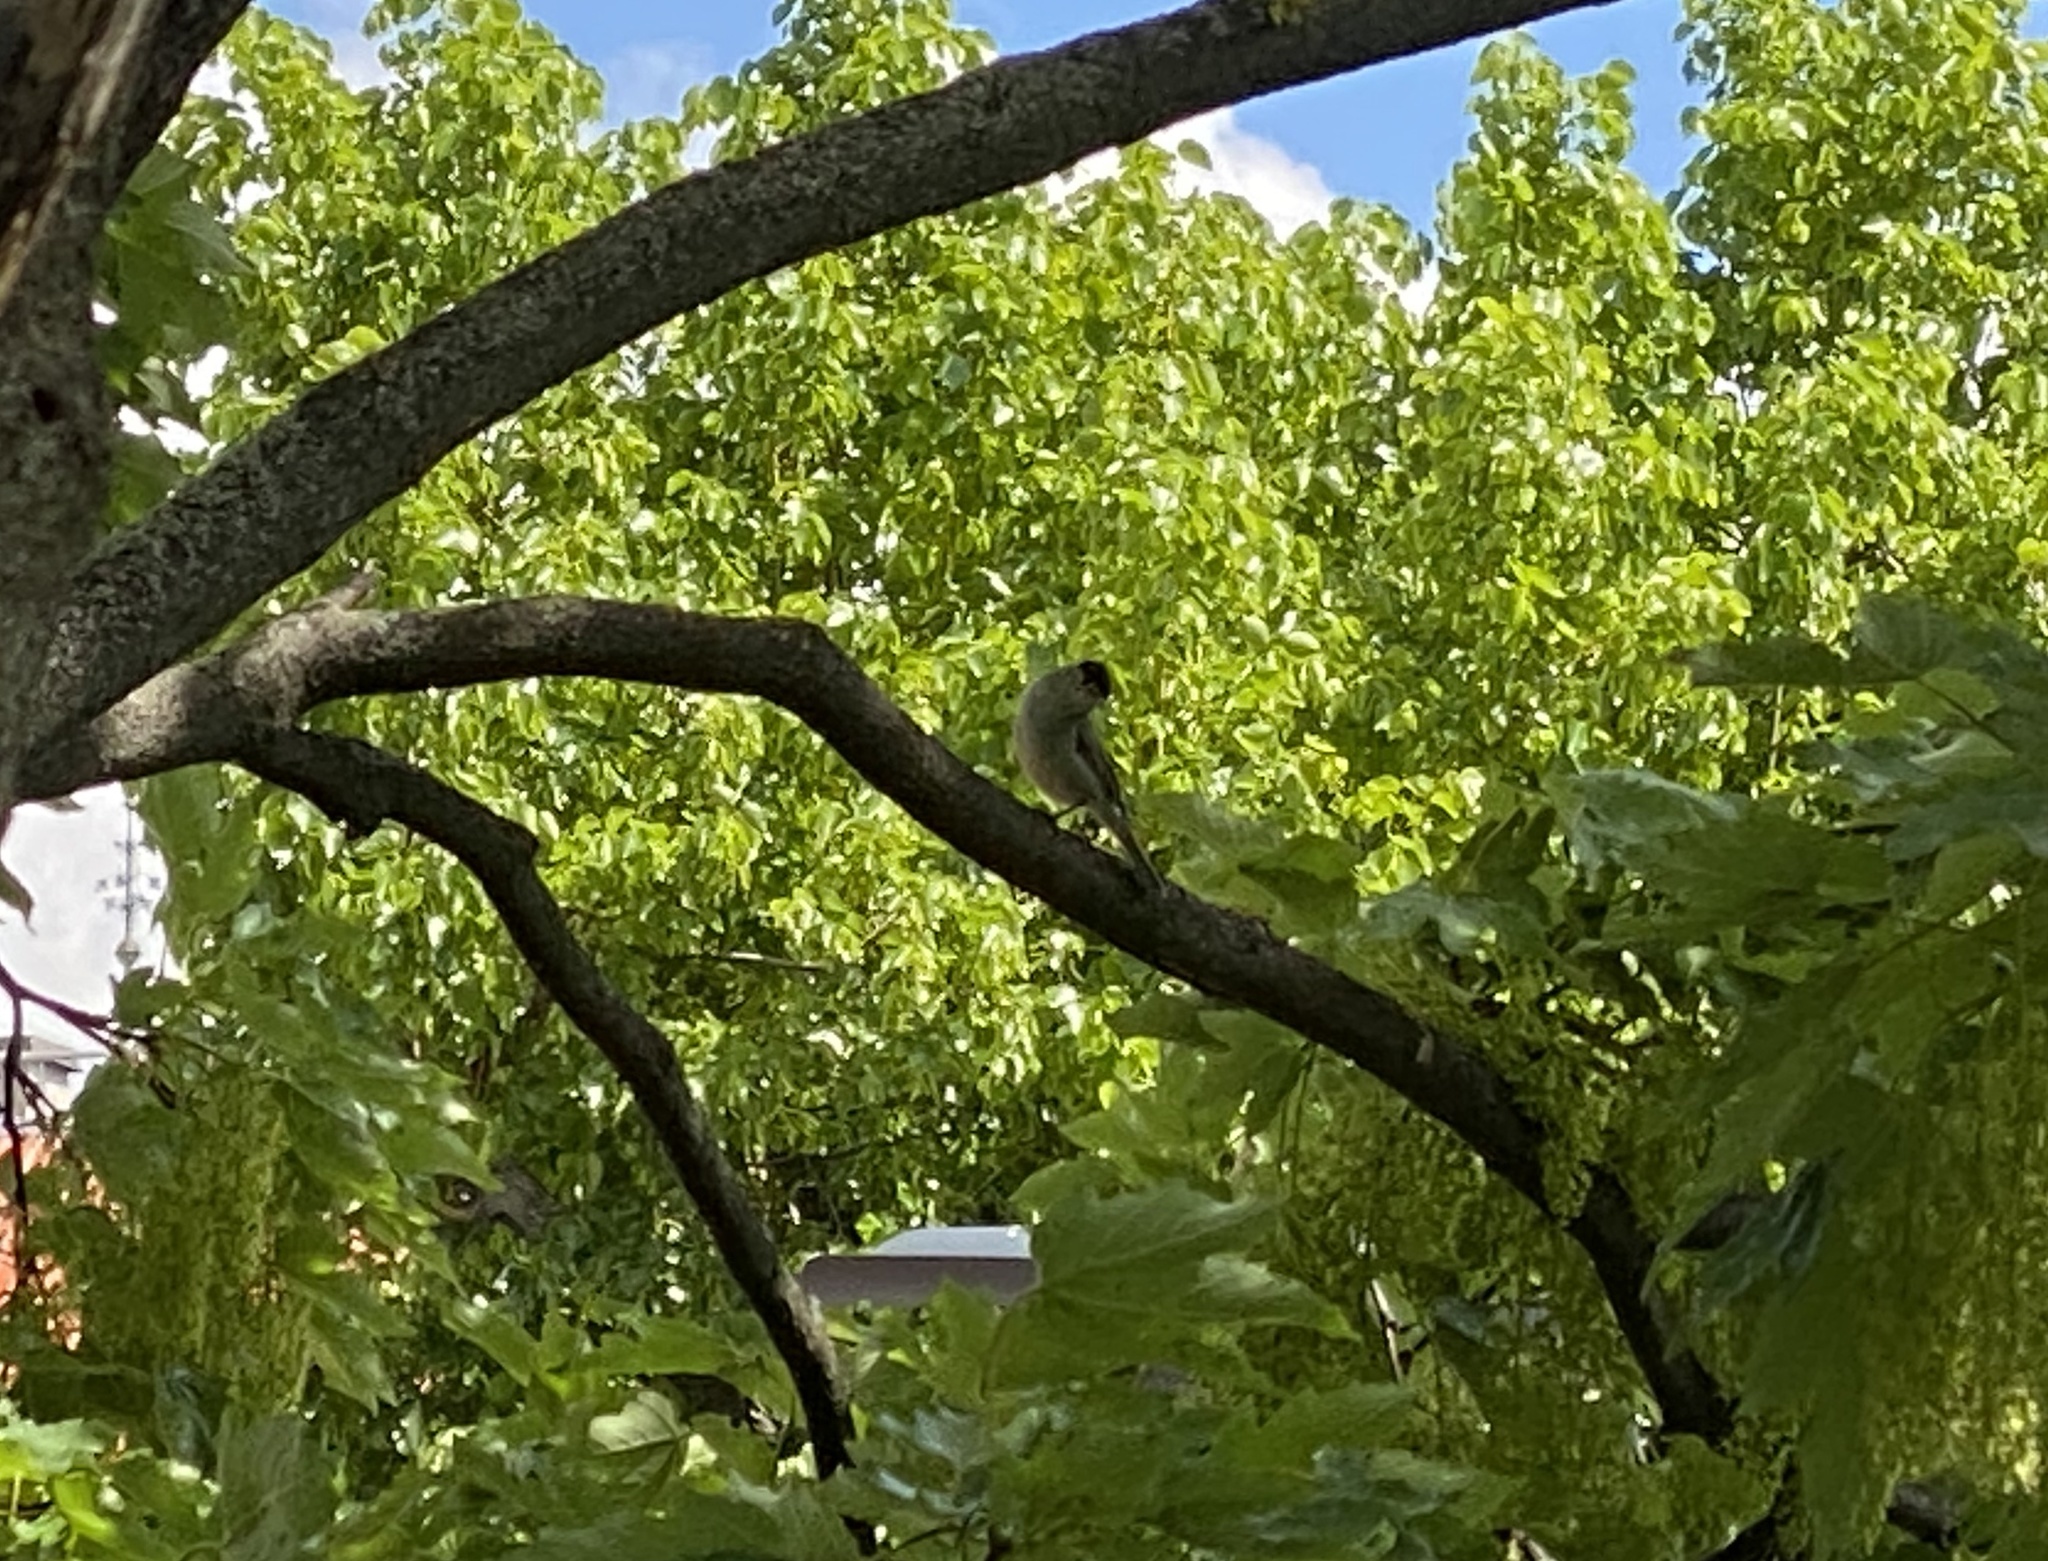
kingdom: Animalia
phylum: Chordata
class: Aves
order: Passeriformes
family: Sylviidae
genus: Sylvia
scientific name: Sylvia atricapilla
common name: Eurasian blackcap
